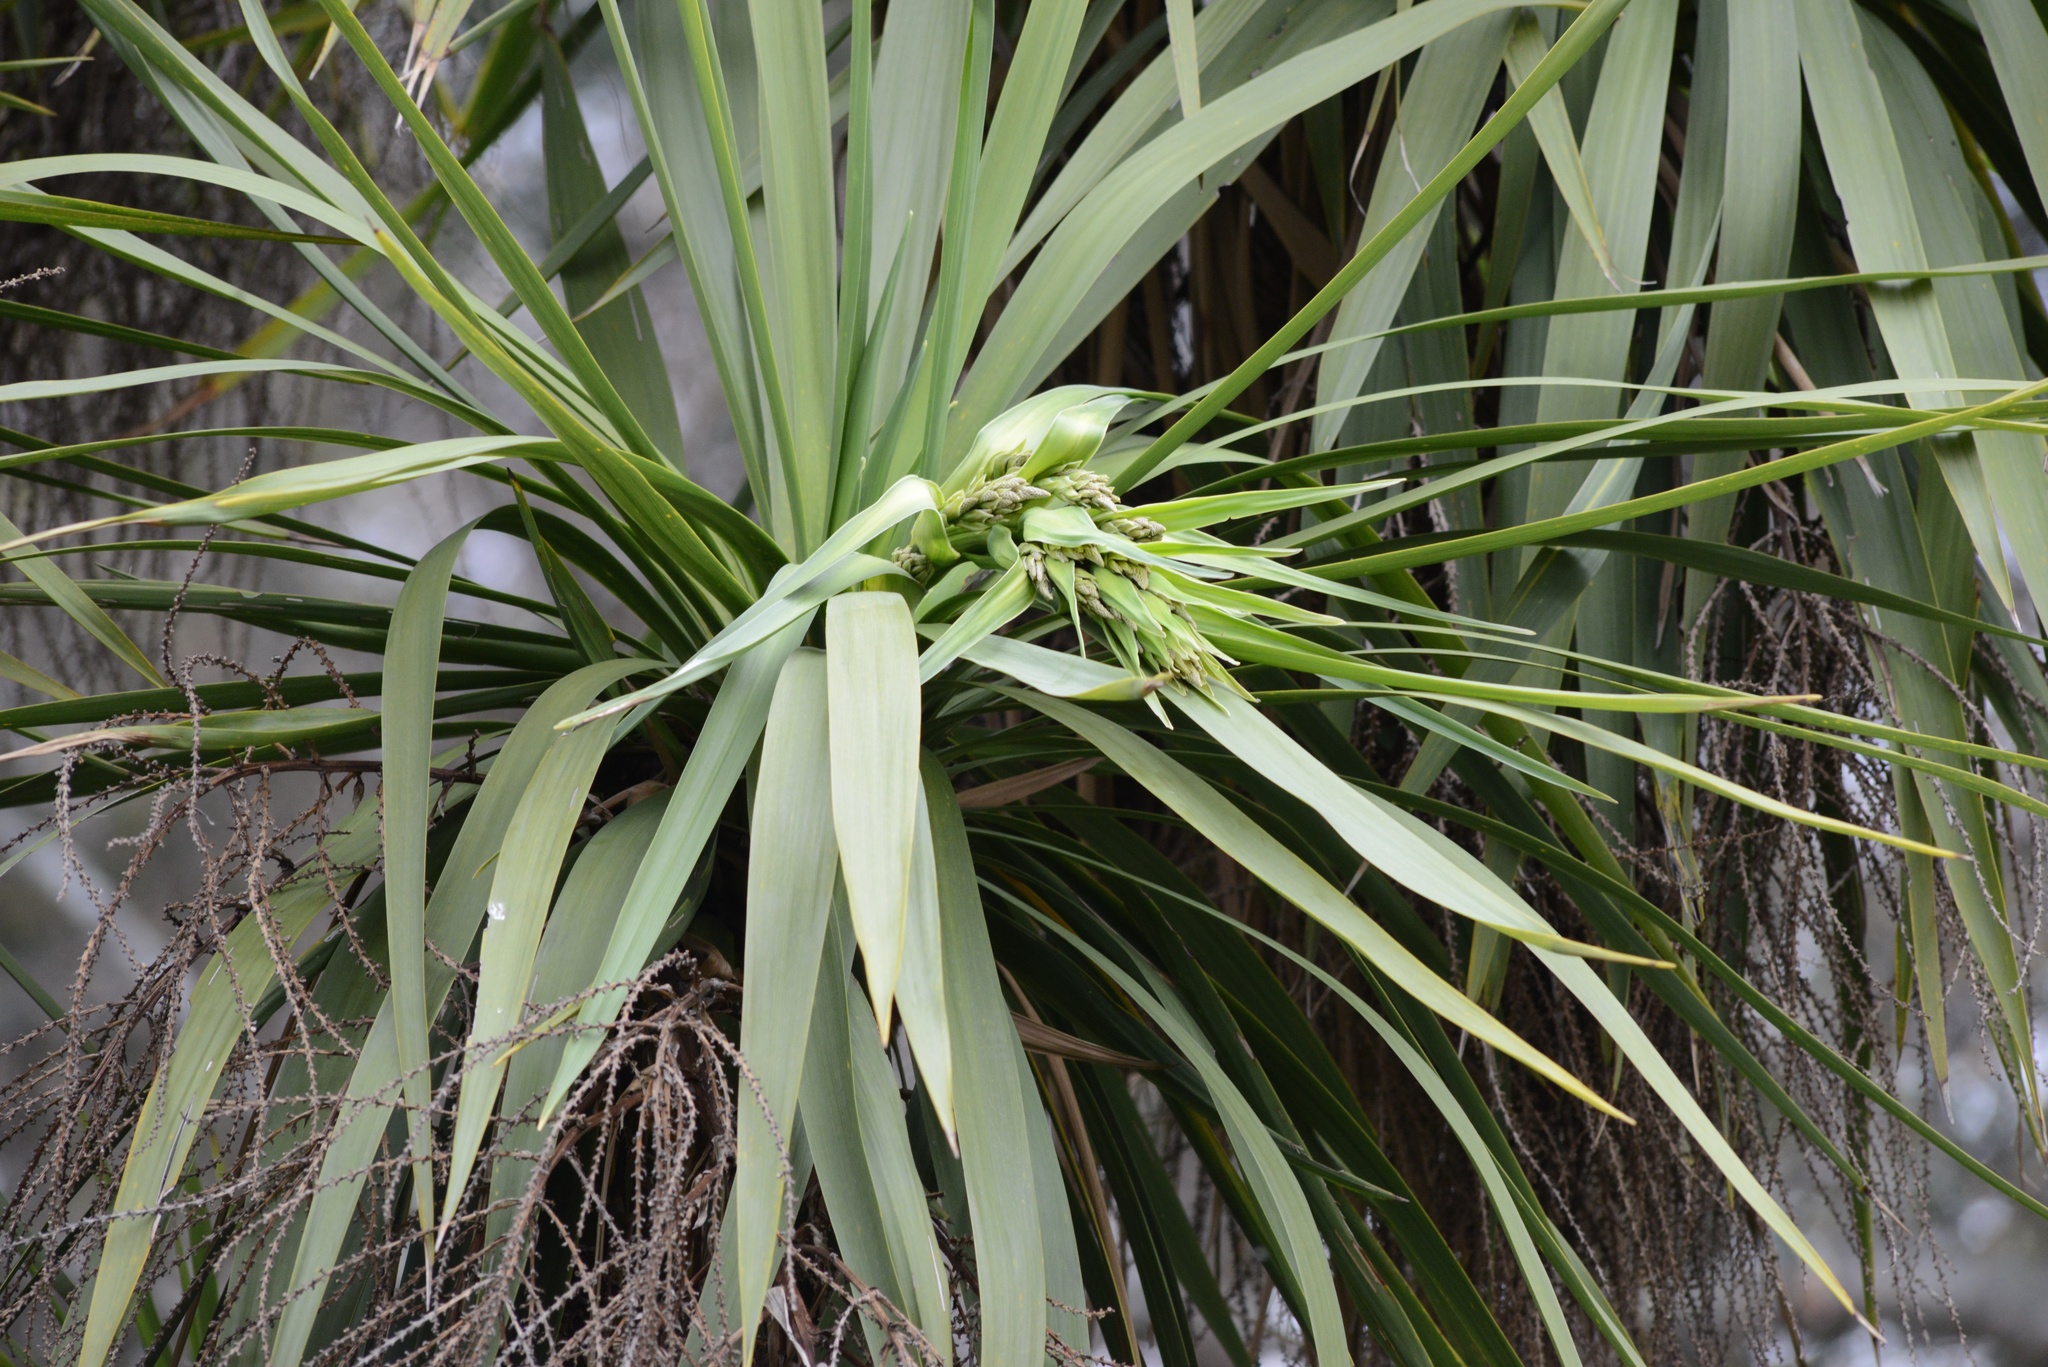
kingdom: Plantae
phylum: Tracheophyta
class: Liliopsida
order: Asparagales
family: Asparagaceae
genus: Cordyline
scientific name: Cordyline australis
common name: Cabbage-palm
